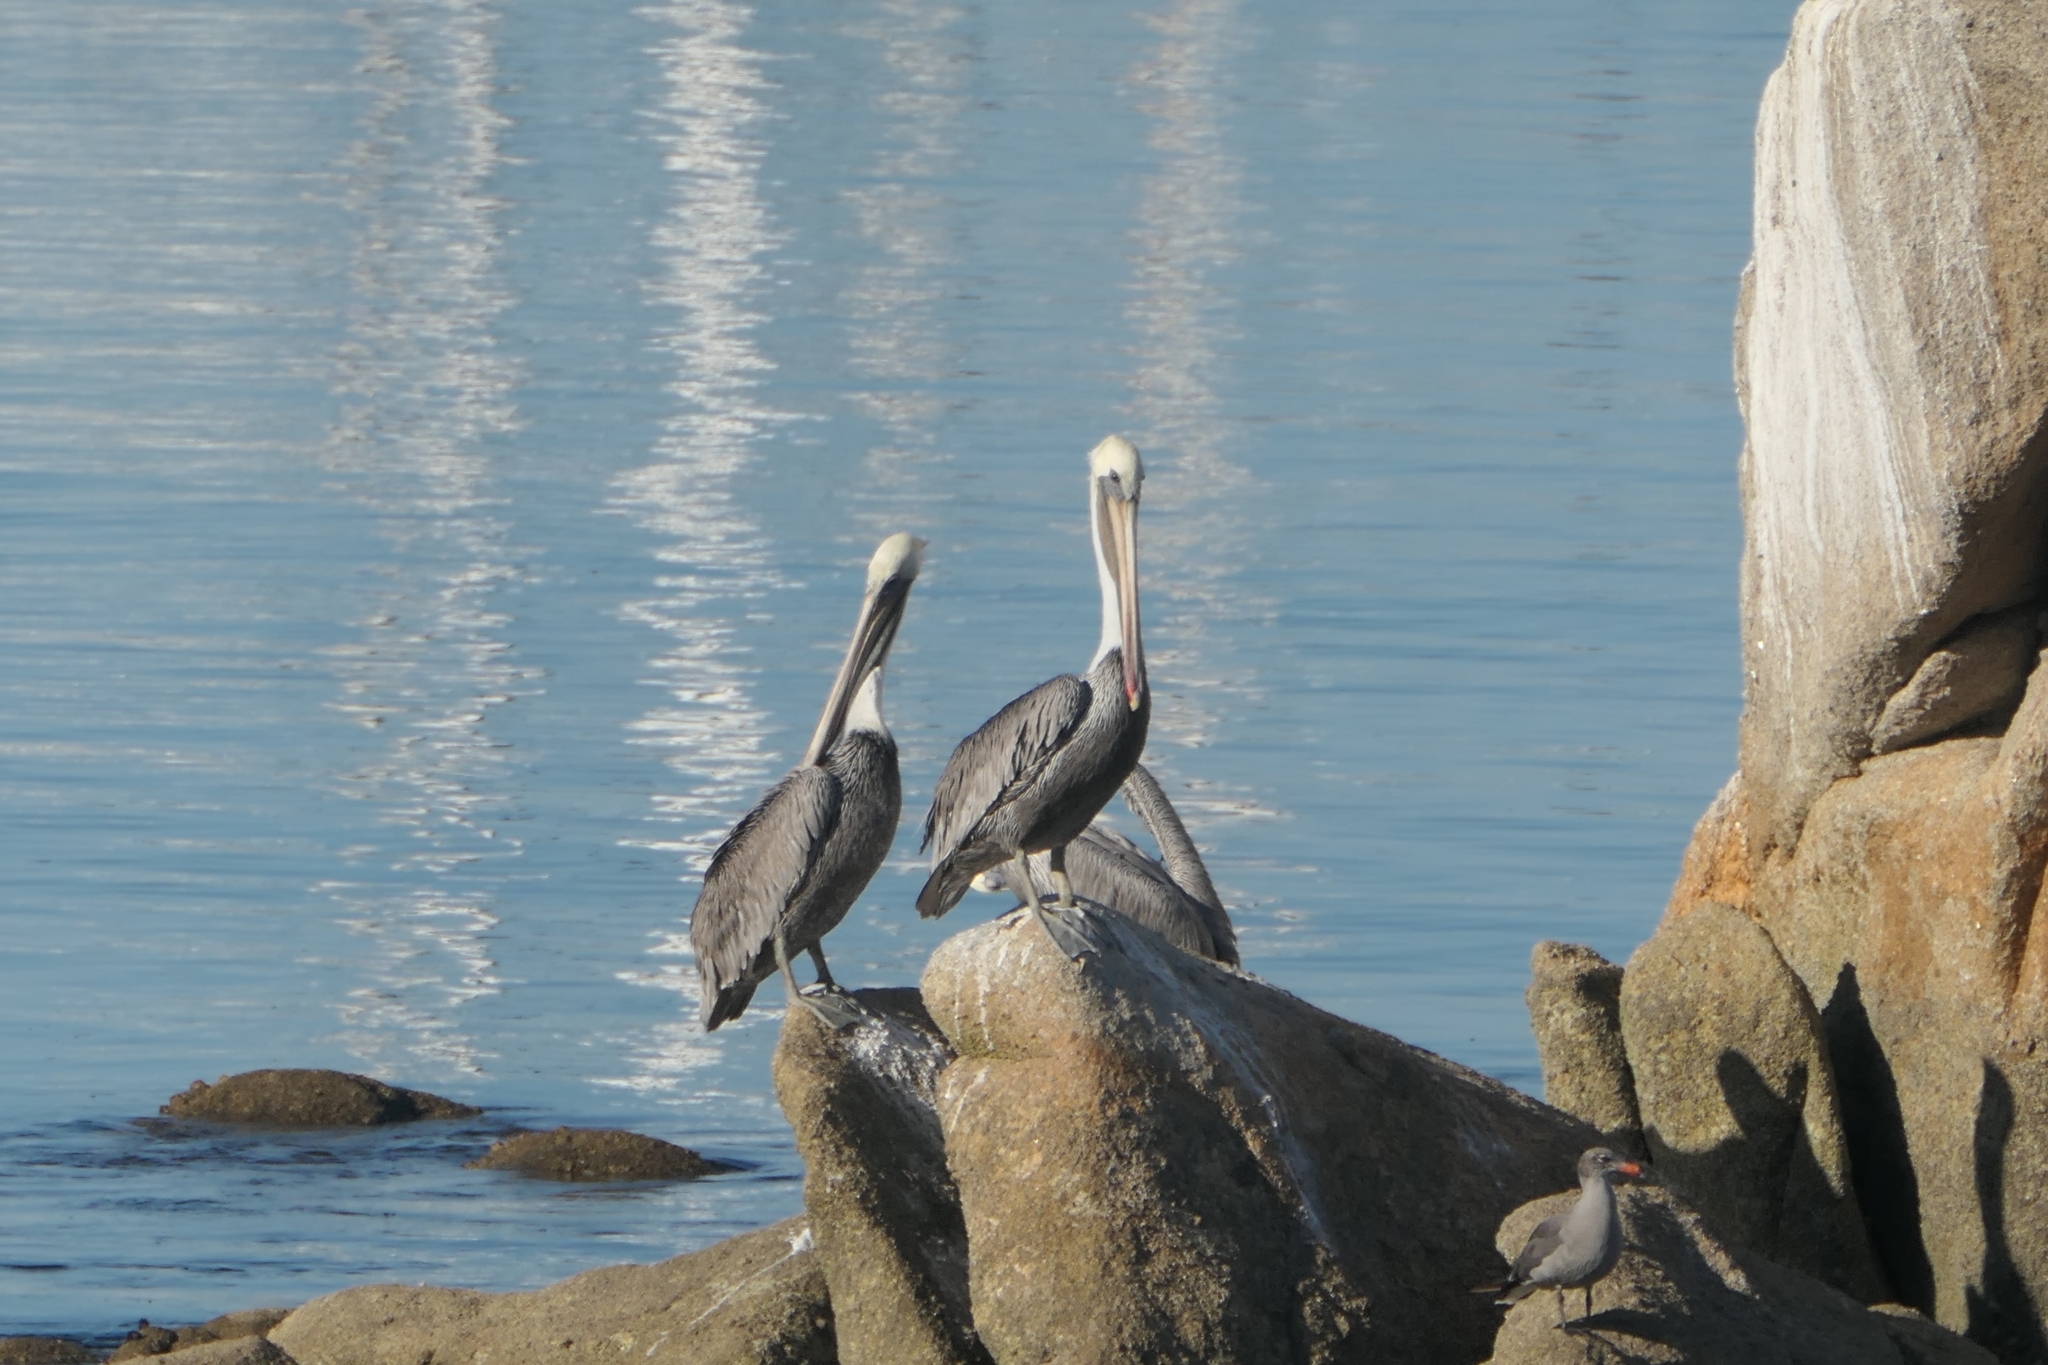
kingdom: Animalia
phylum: Chordata
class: Aves
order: Pelecaniformes
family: Pelecanidae
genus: Pelecanus
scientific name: Pelecanus occidentalis
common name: Brown pelican
